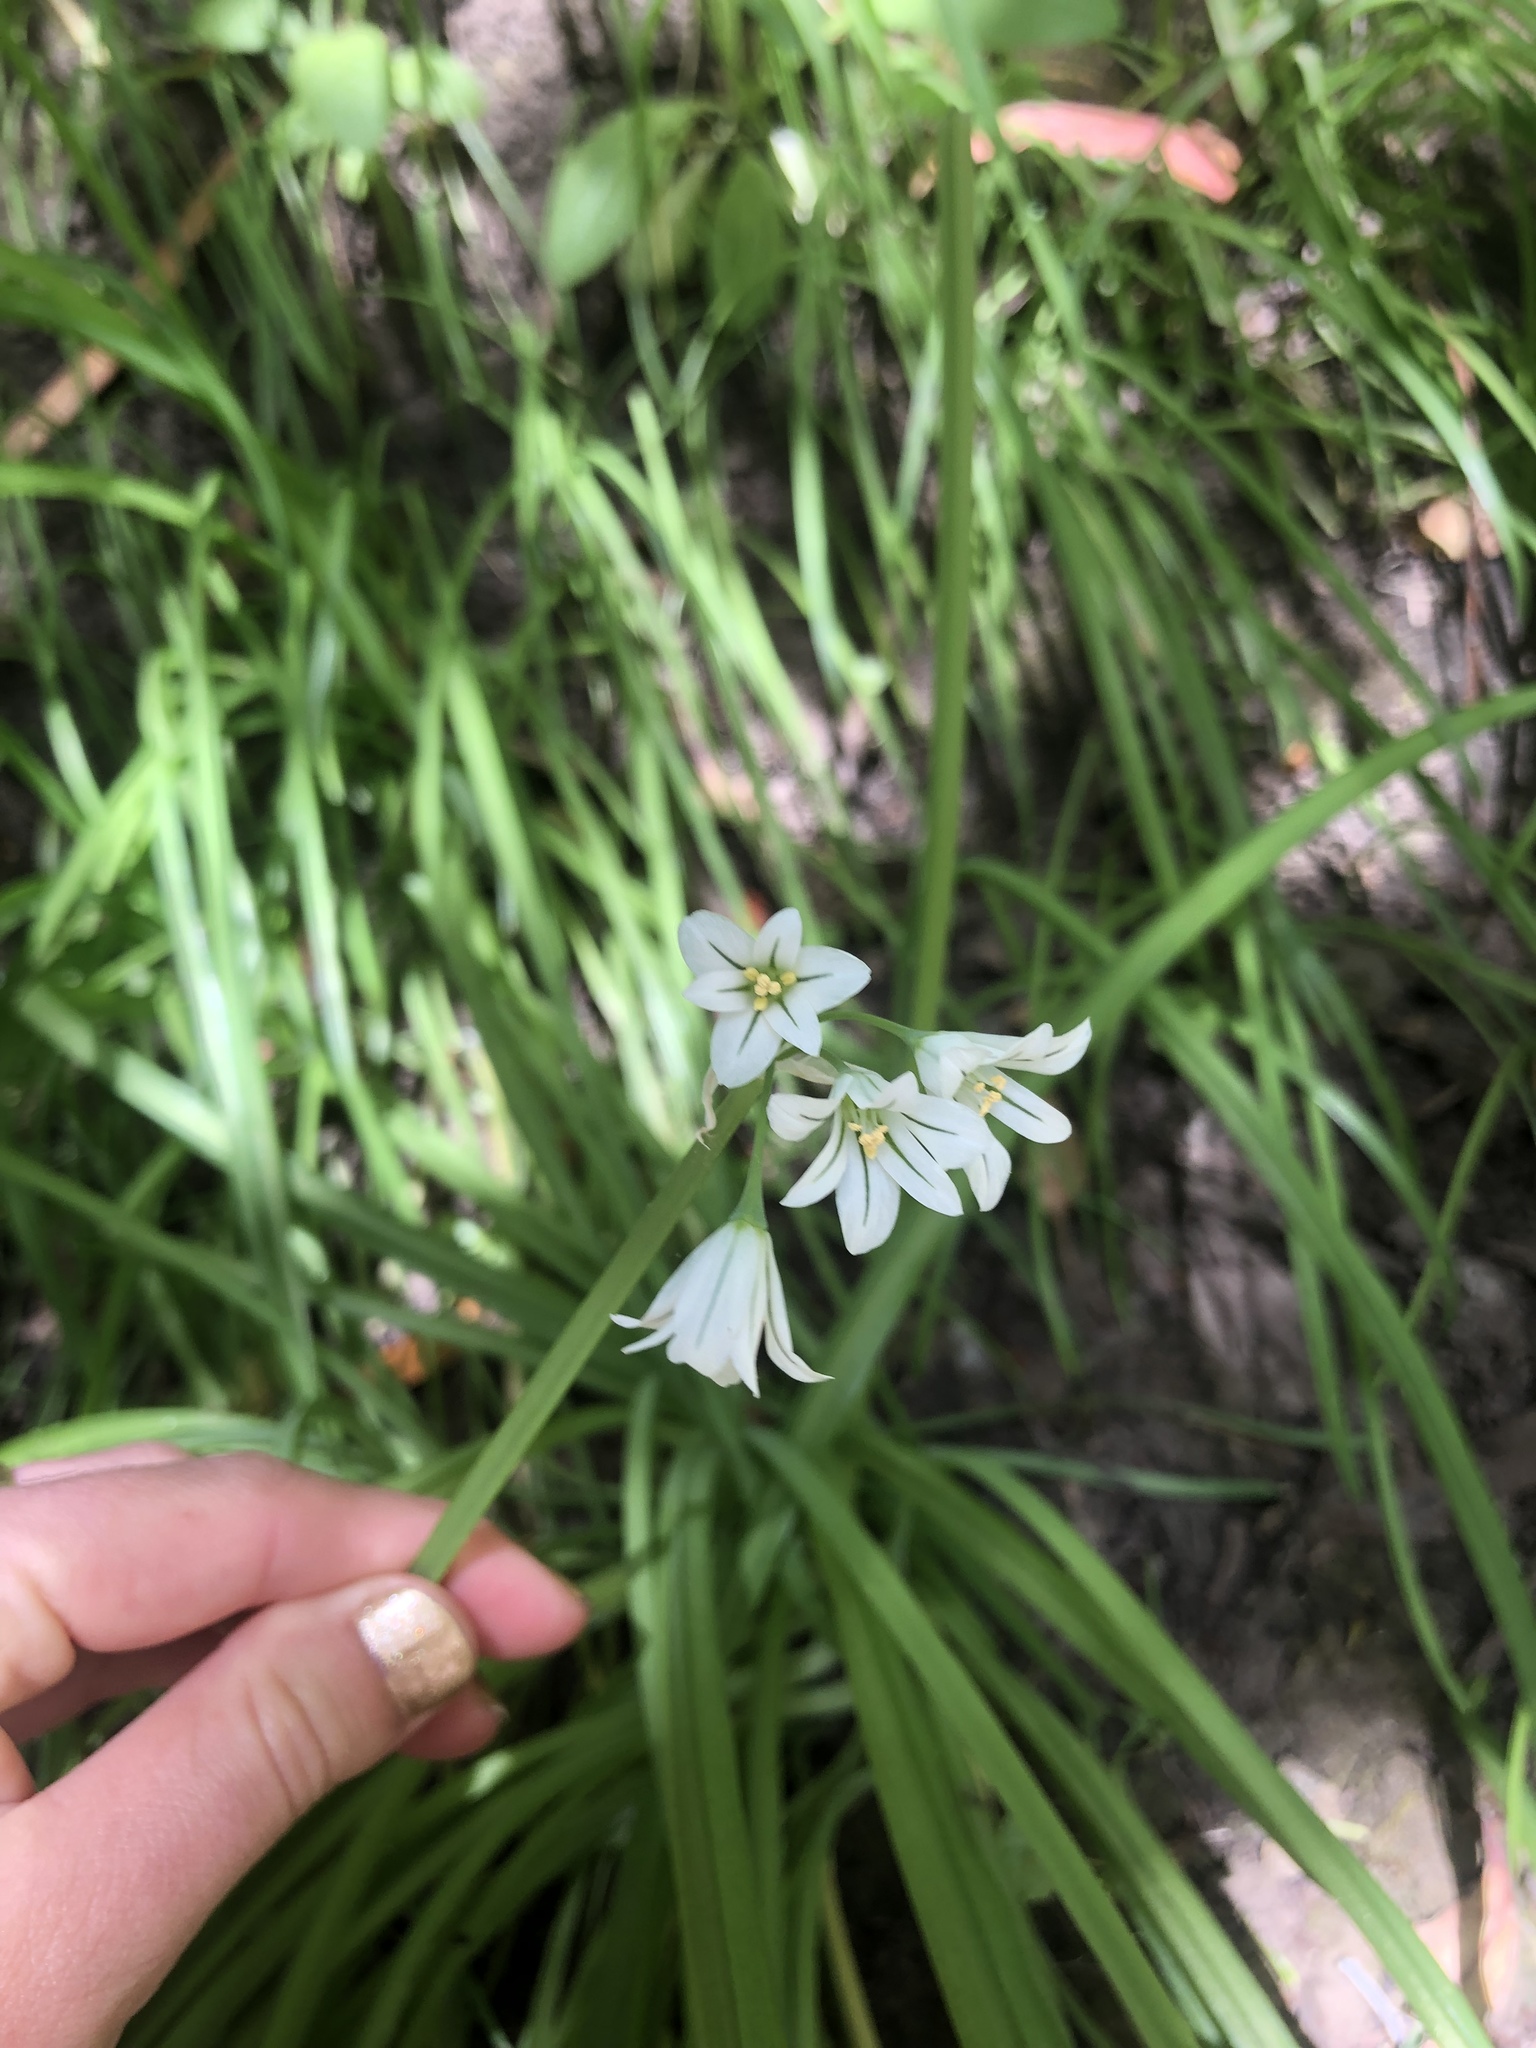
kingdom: Plantae
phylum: Tracheophyta
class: Liliopsida
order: Asparagales
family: Amaryllidaceae
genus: Allium
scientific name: Allium triquetrum
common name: Three-cornered garlic
